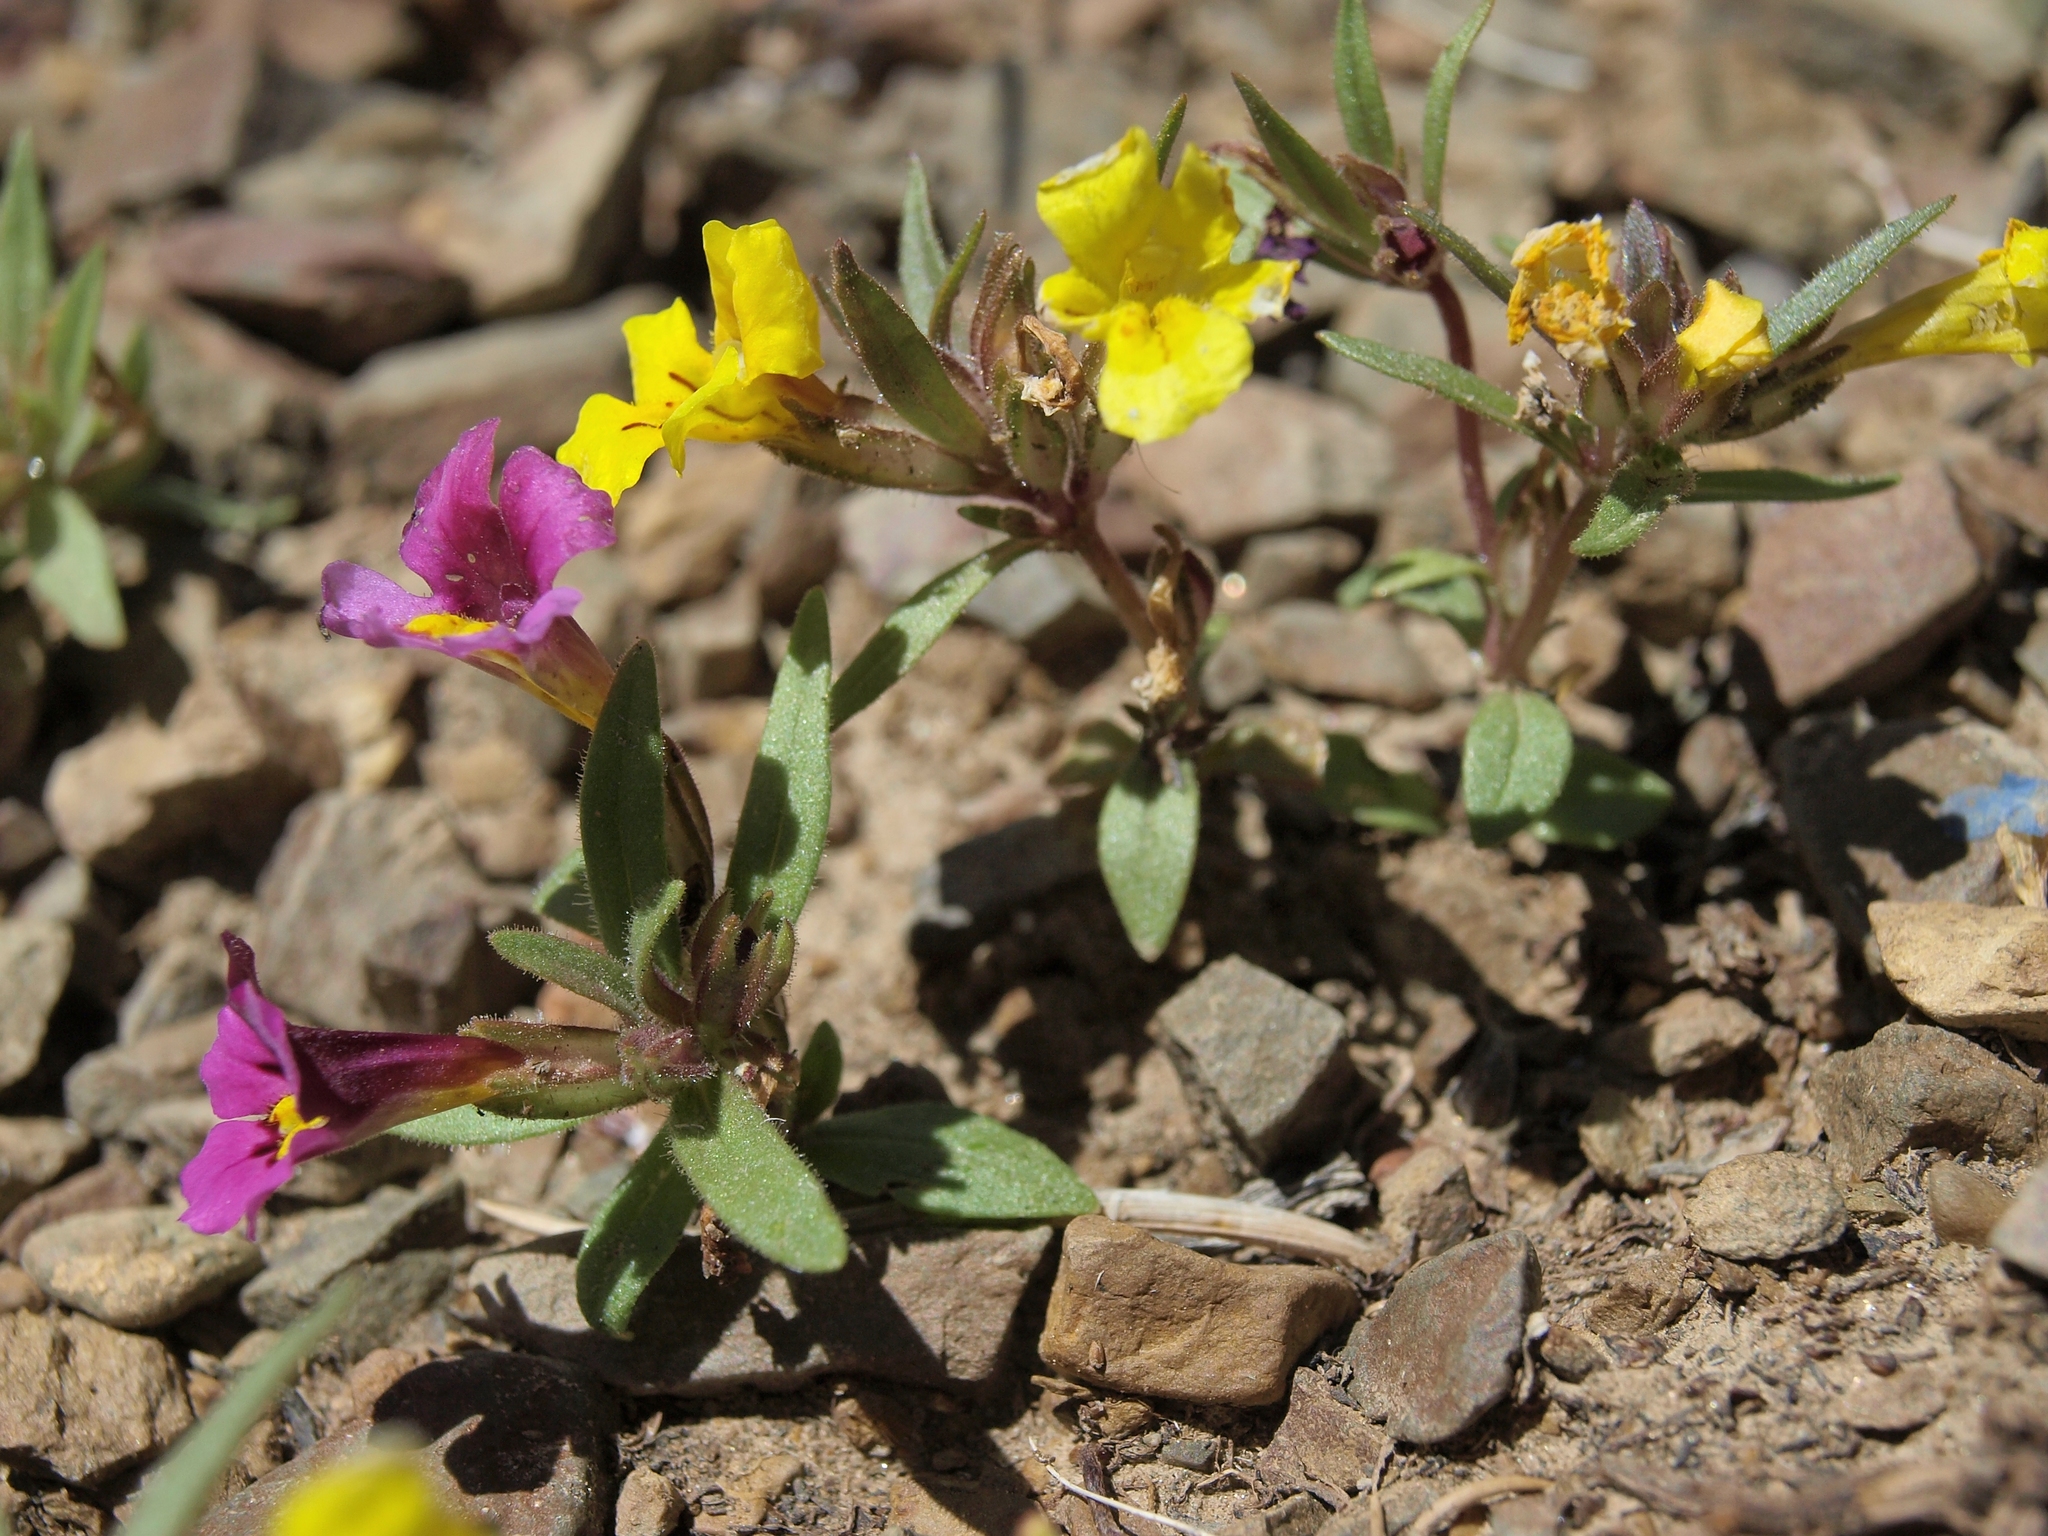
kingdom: Plantae
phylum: Tracheophyta
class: Magnoliopsida
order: Lamiales
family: Phrymaceae
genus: Diplacus
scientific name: Diplacus mephiticus
